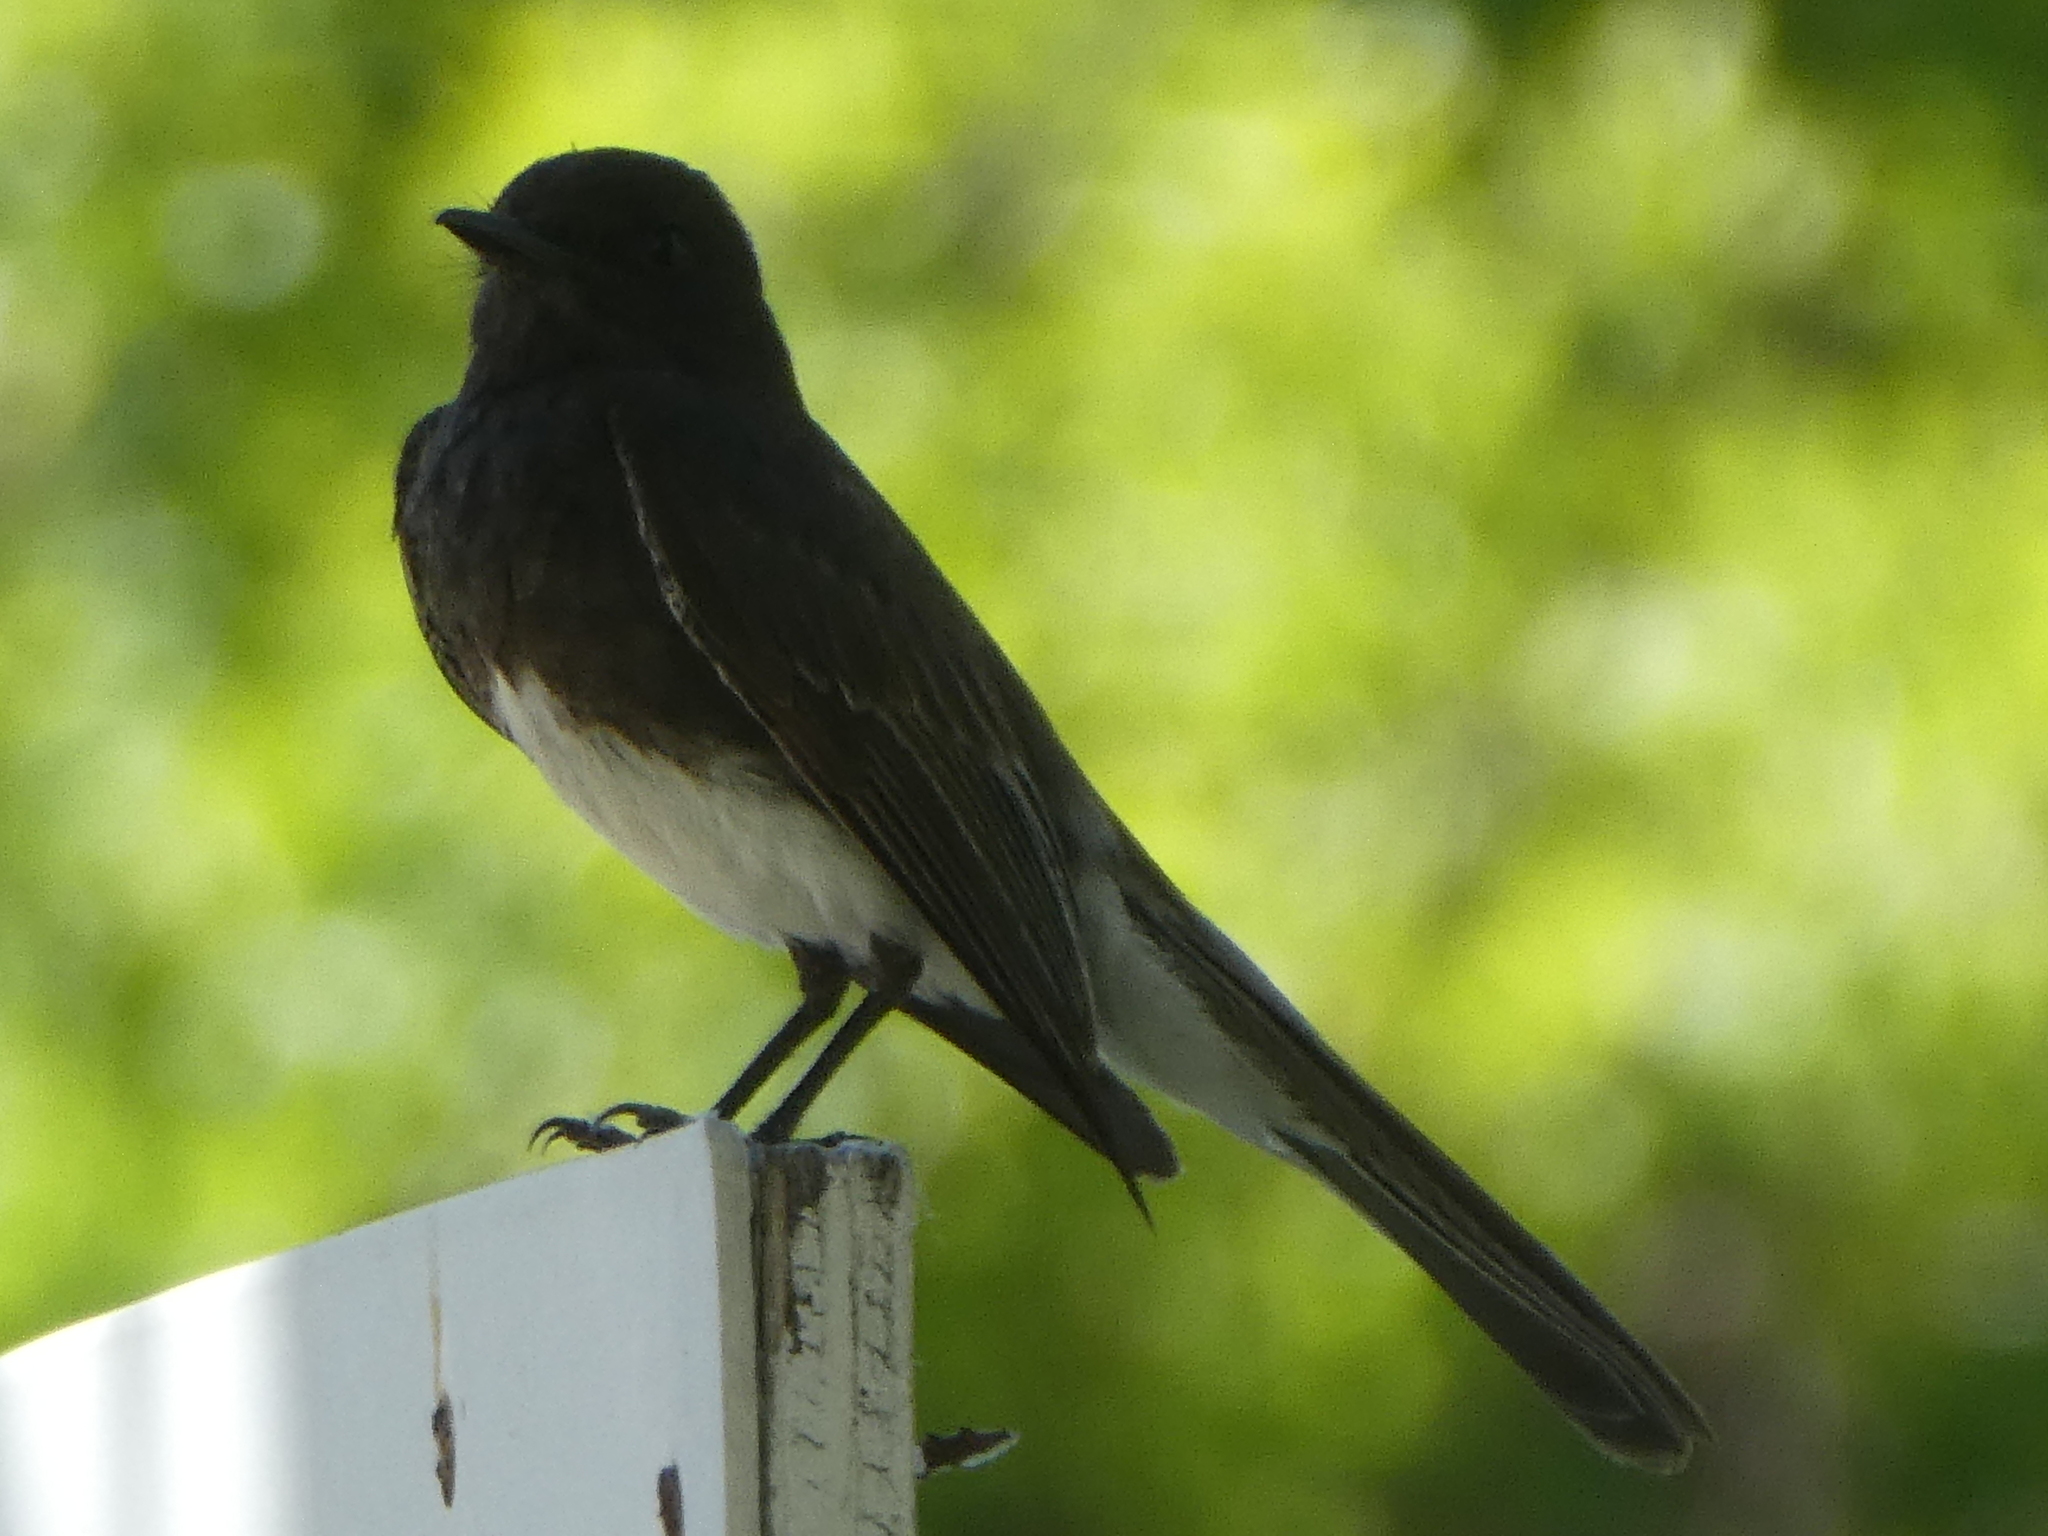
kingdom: Animalia
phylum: Chordata
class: Aves
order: Passeriformes
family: Tyrannidae
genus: Sayornis
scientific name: Sayornis nigricans
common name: Black phoebe
